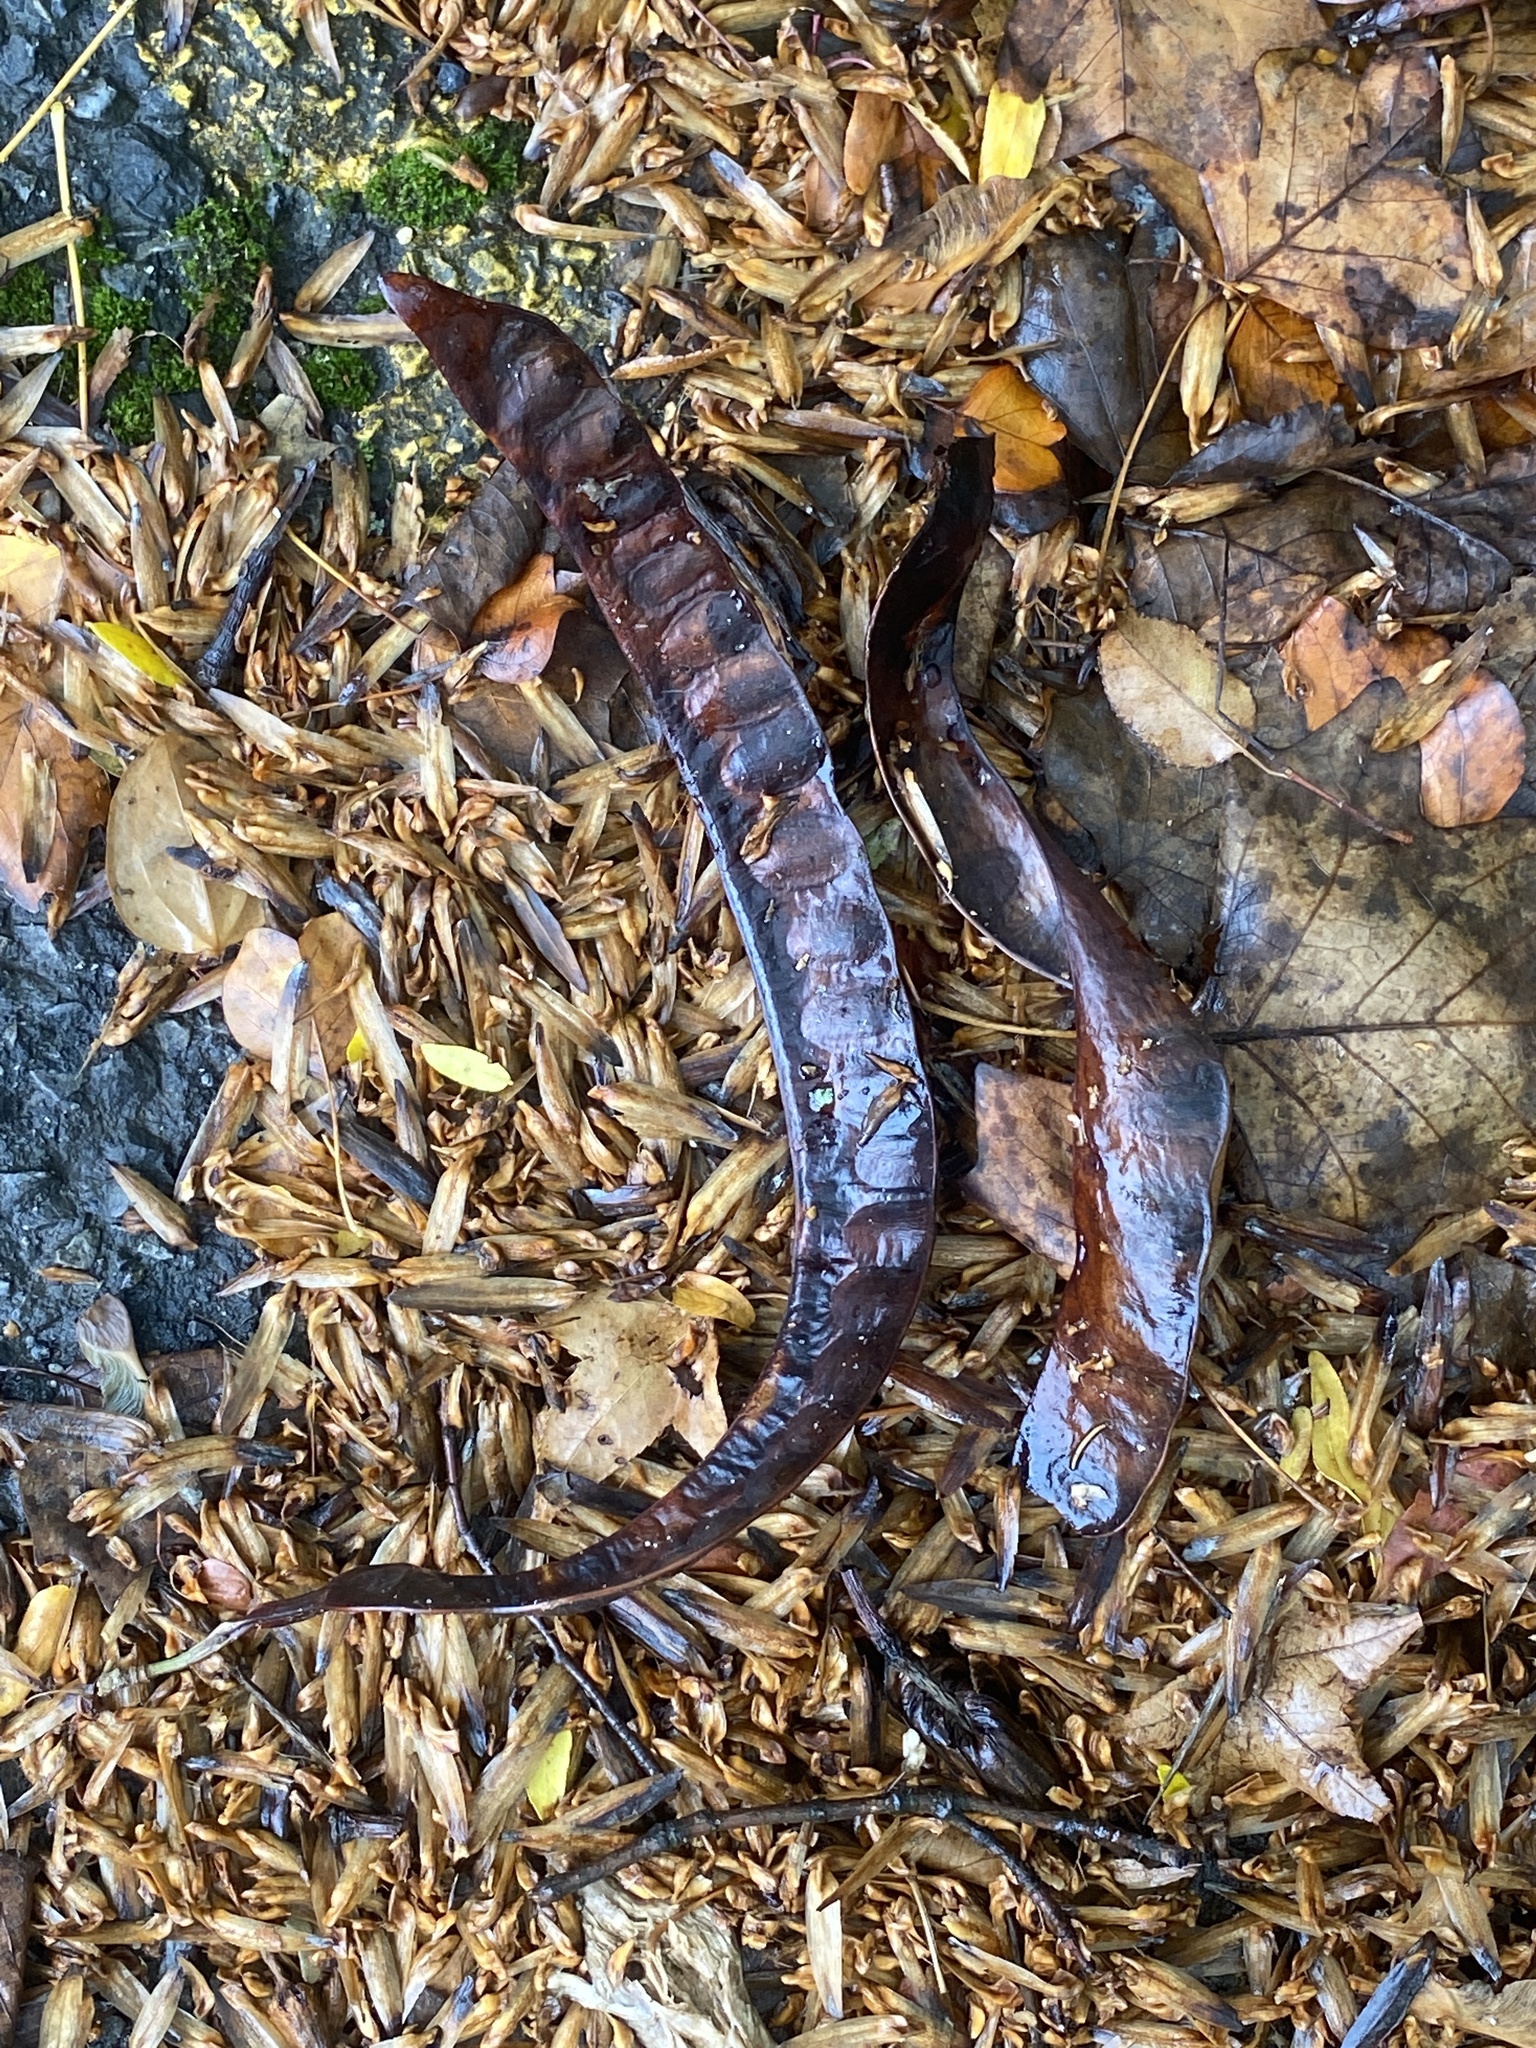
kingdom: Plantae
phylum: Tracheophyta
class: Magnoliopsida
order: Fabales
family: Fabaceae
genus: Gleditsia
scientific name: Gleditsia triacanthos
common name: Common honeylocust
